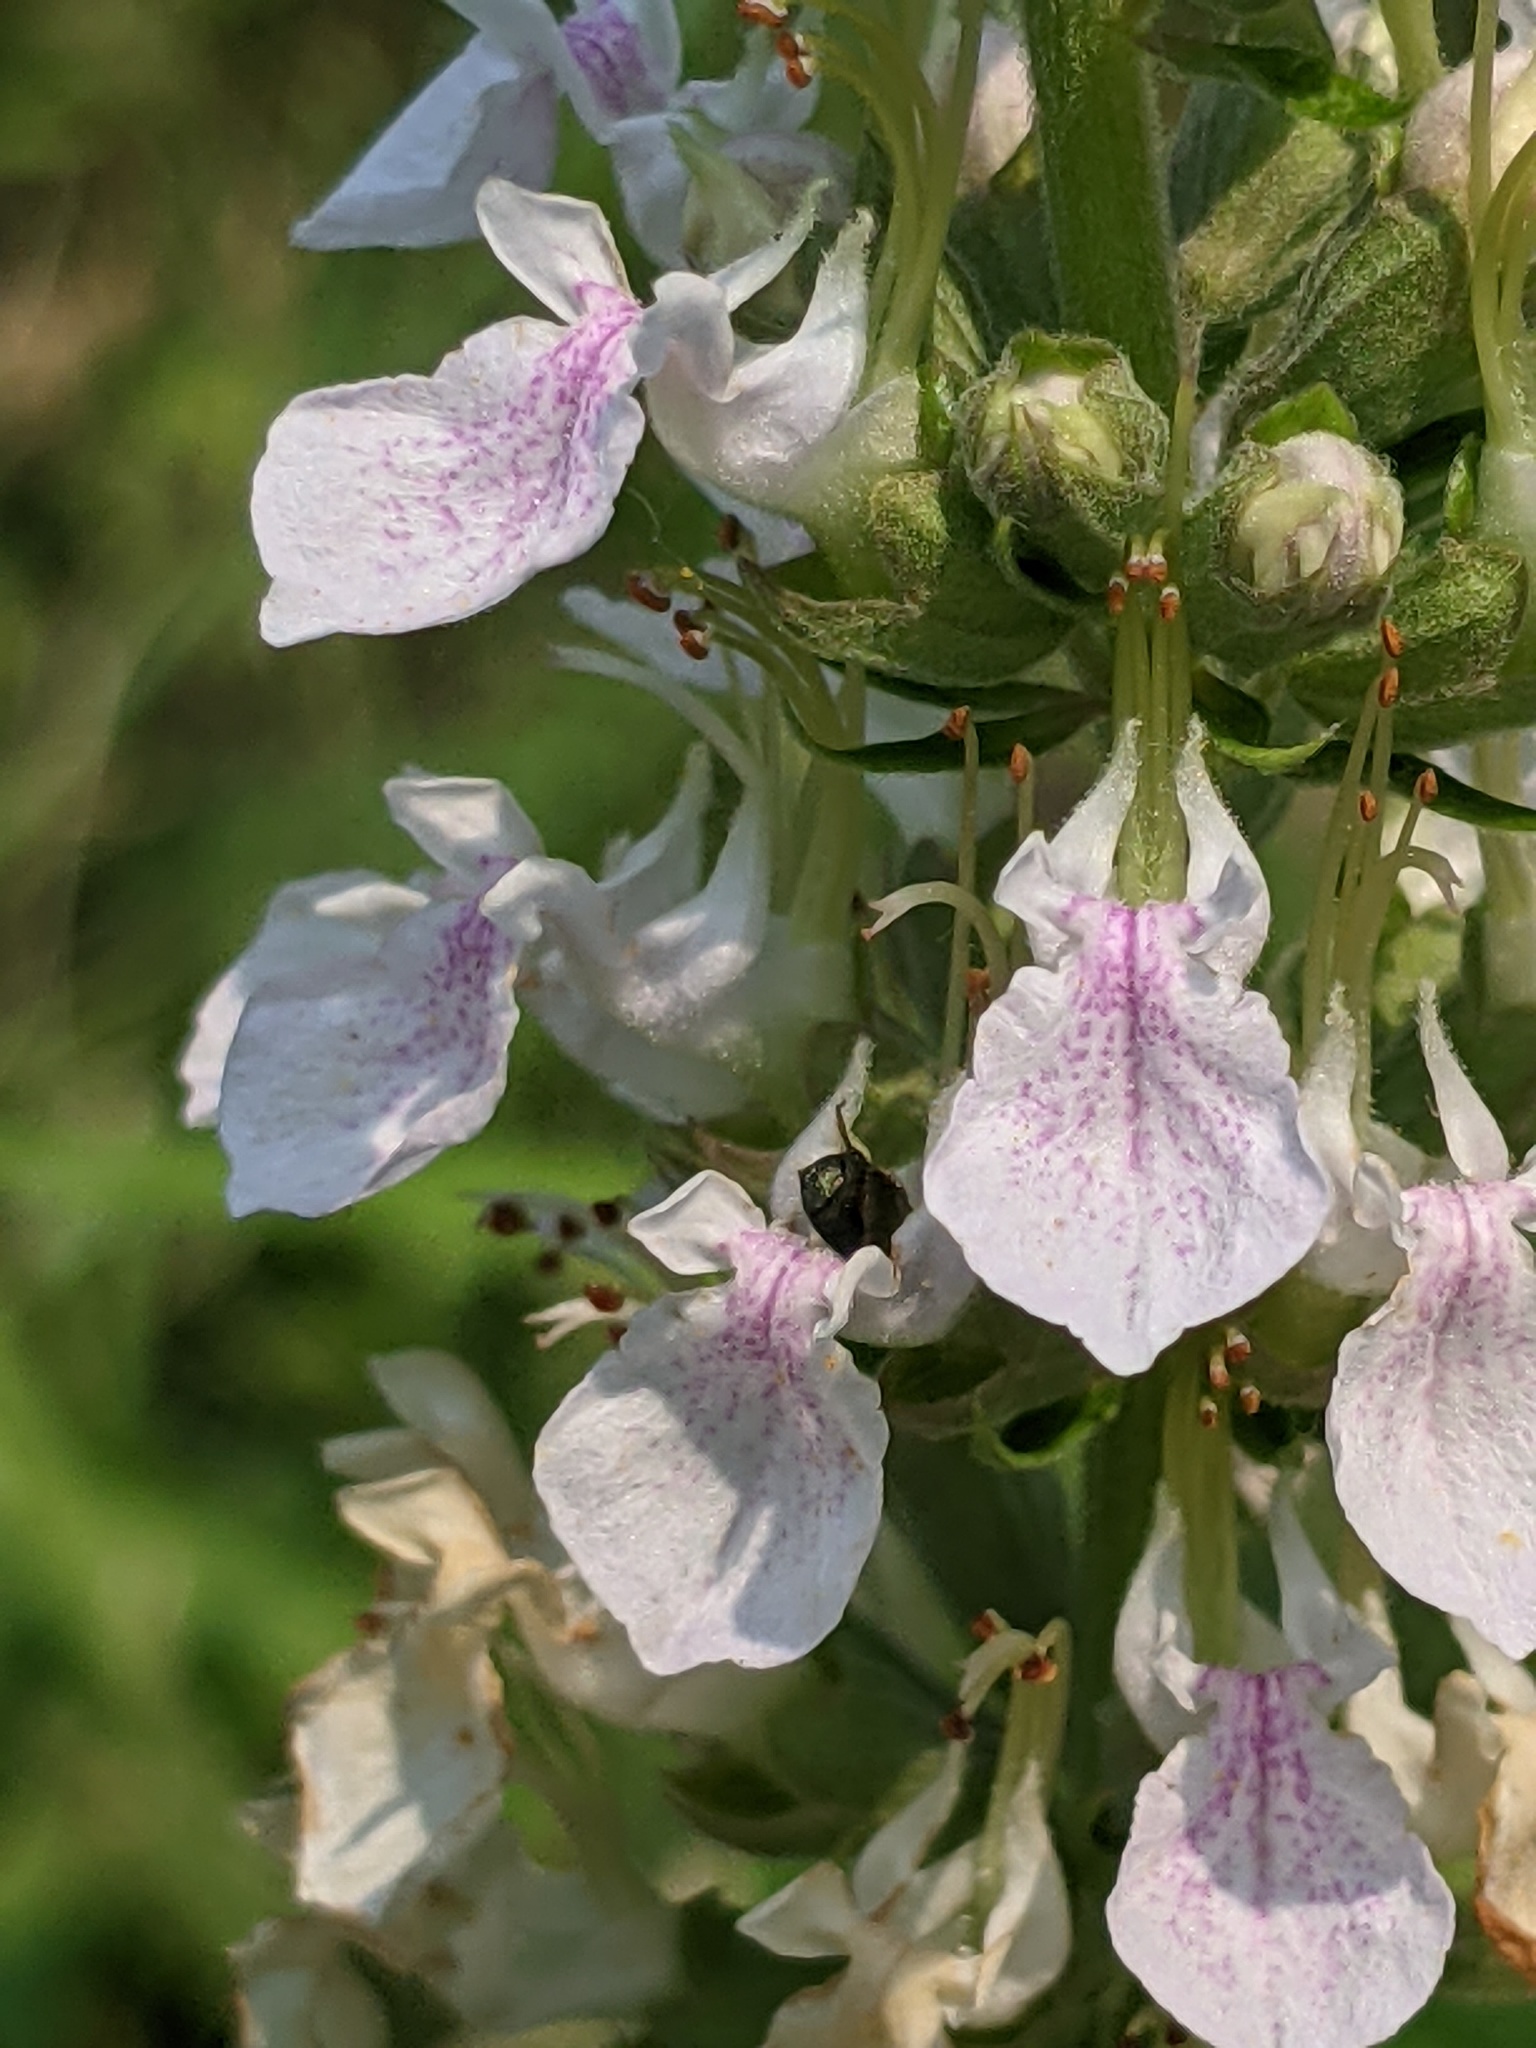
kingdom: Animalia
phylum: Arthropoda
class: Insecta
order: Hymenoptera
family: Apidae
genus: Zadontomerus
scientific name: Zadontomerus
